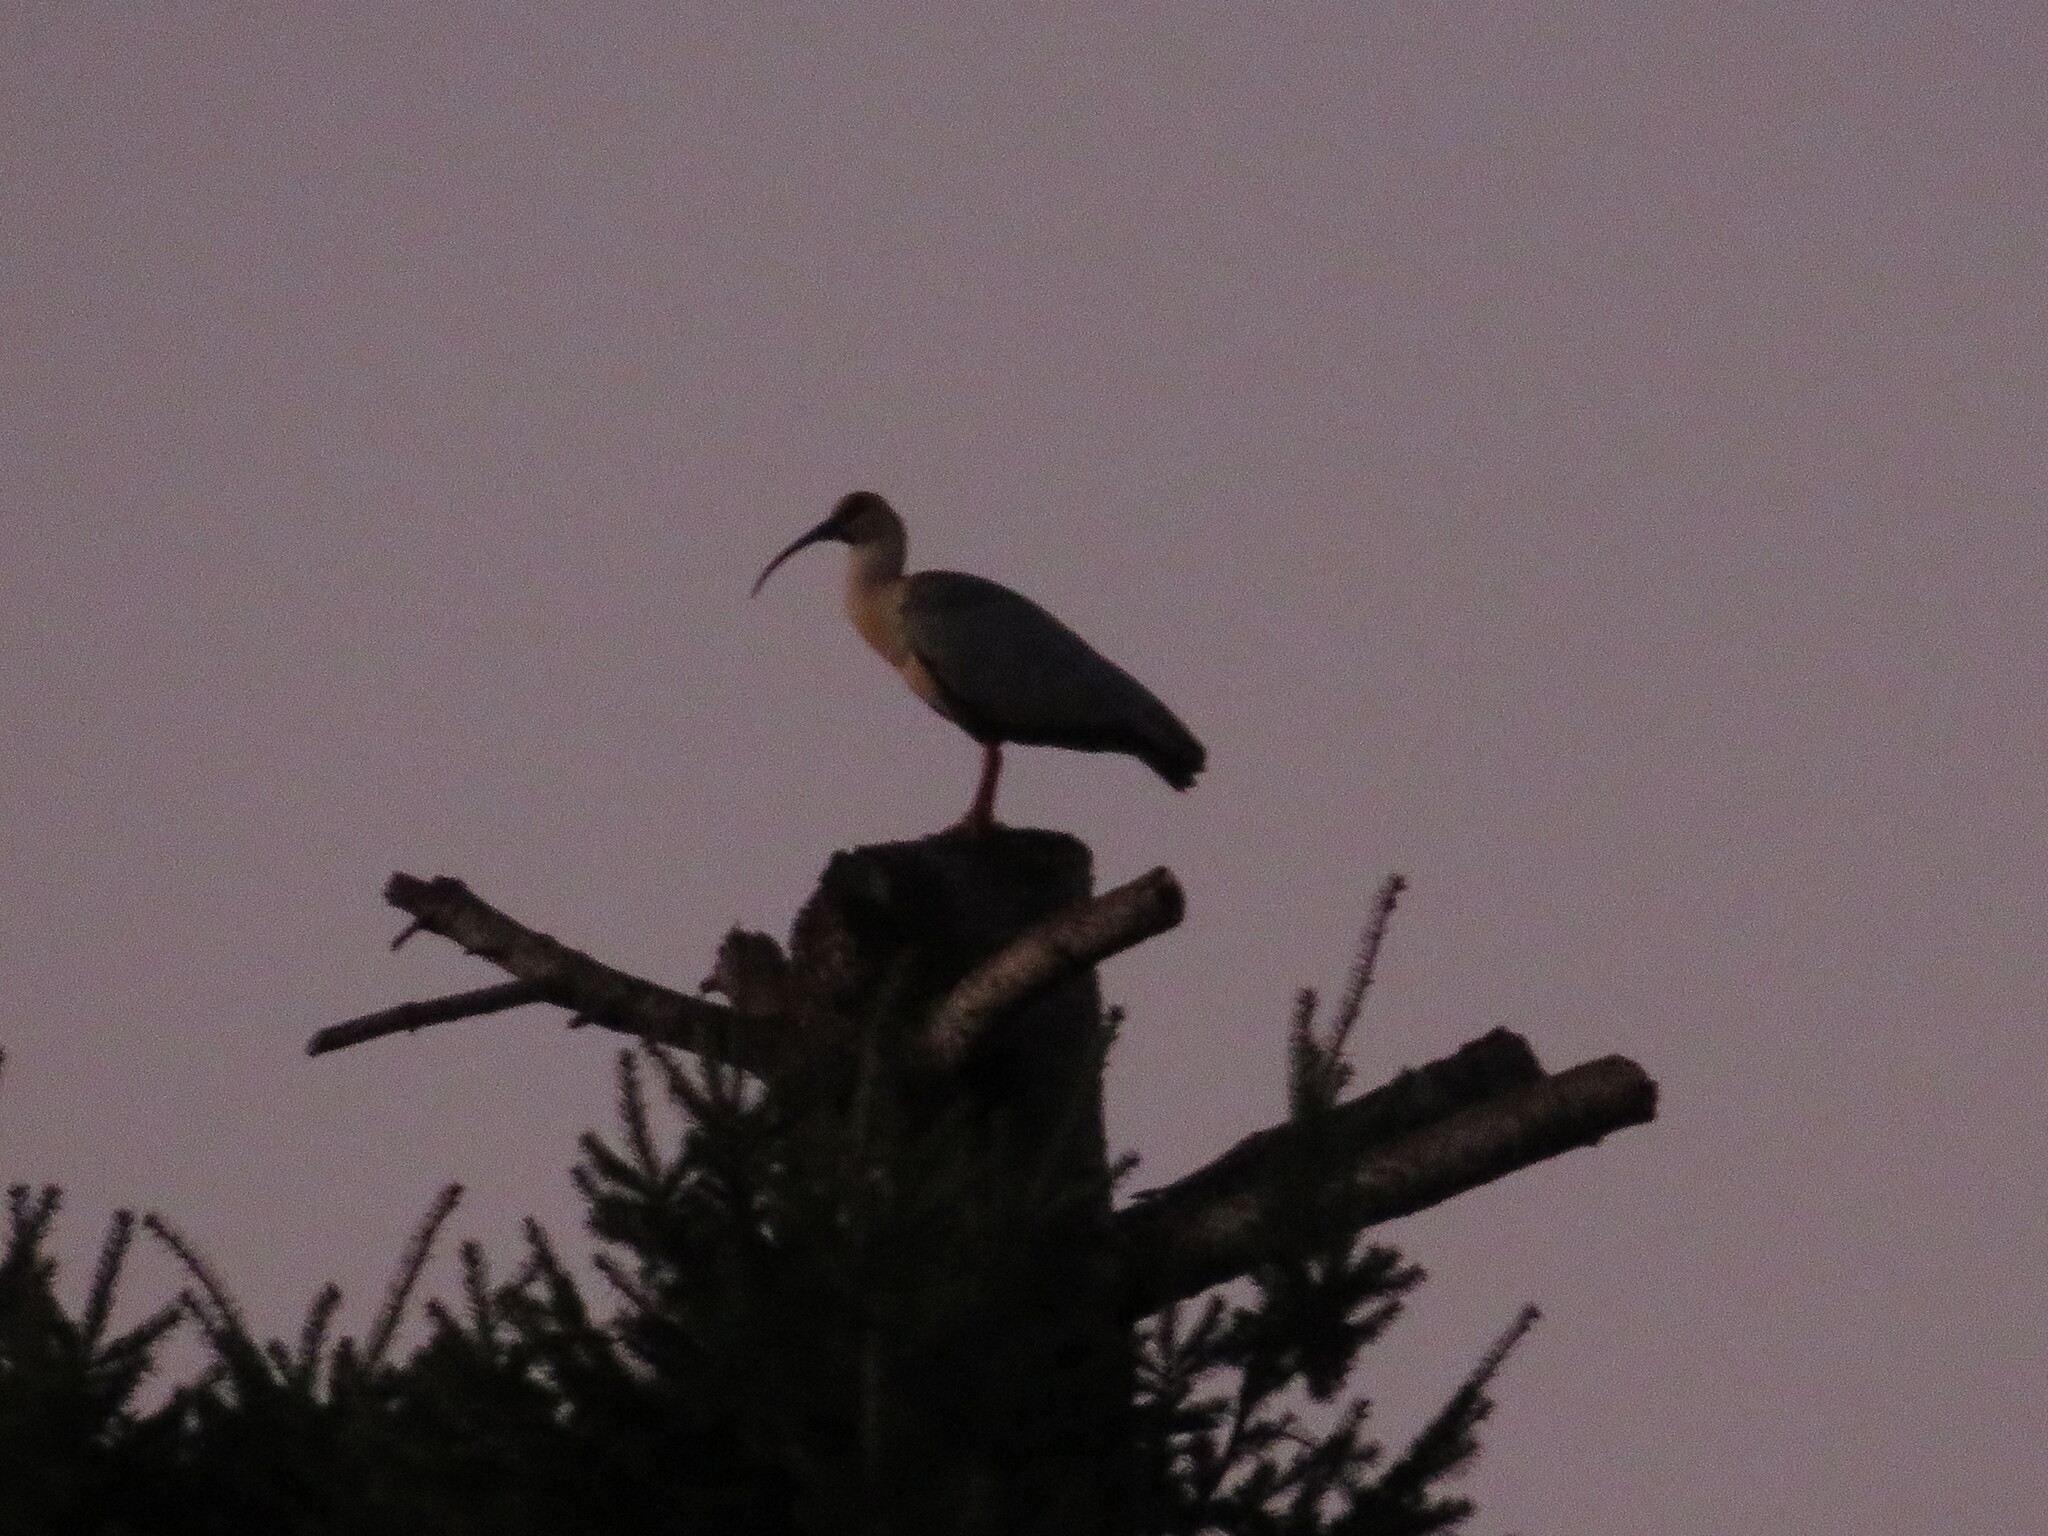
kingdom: Animalia
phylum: Chordata
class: Aves
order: Pelecaniformes
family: Threskiornithidae
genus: Theristicus
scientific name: Theristicus melanopis
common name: Black-faced ibis
